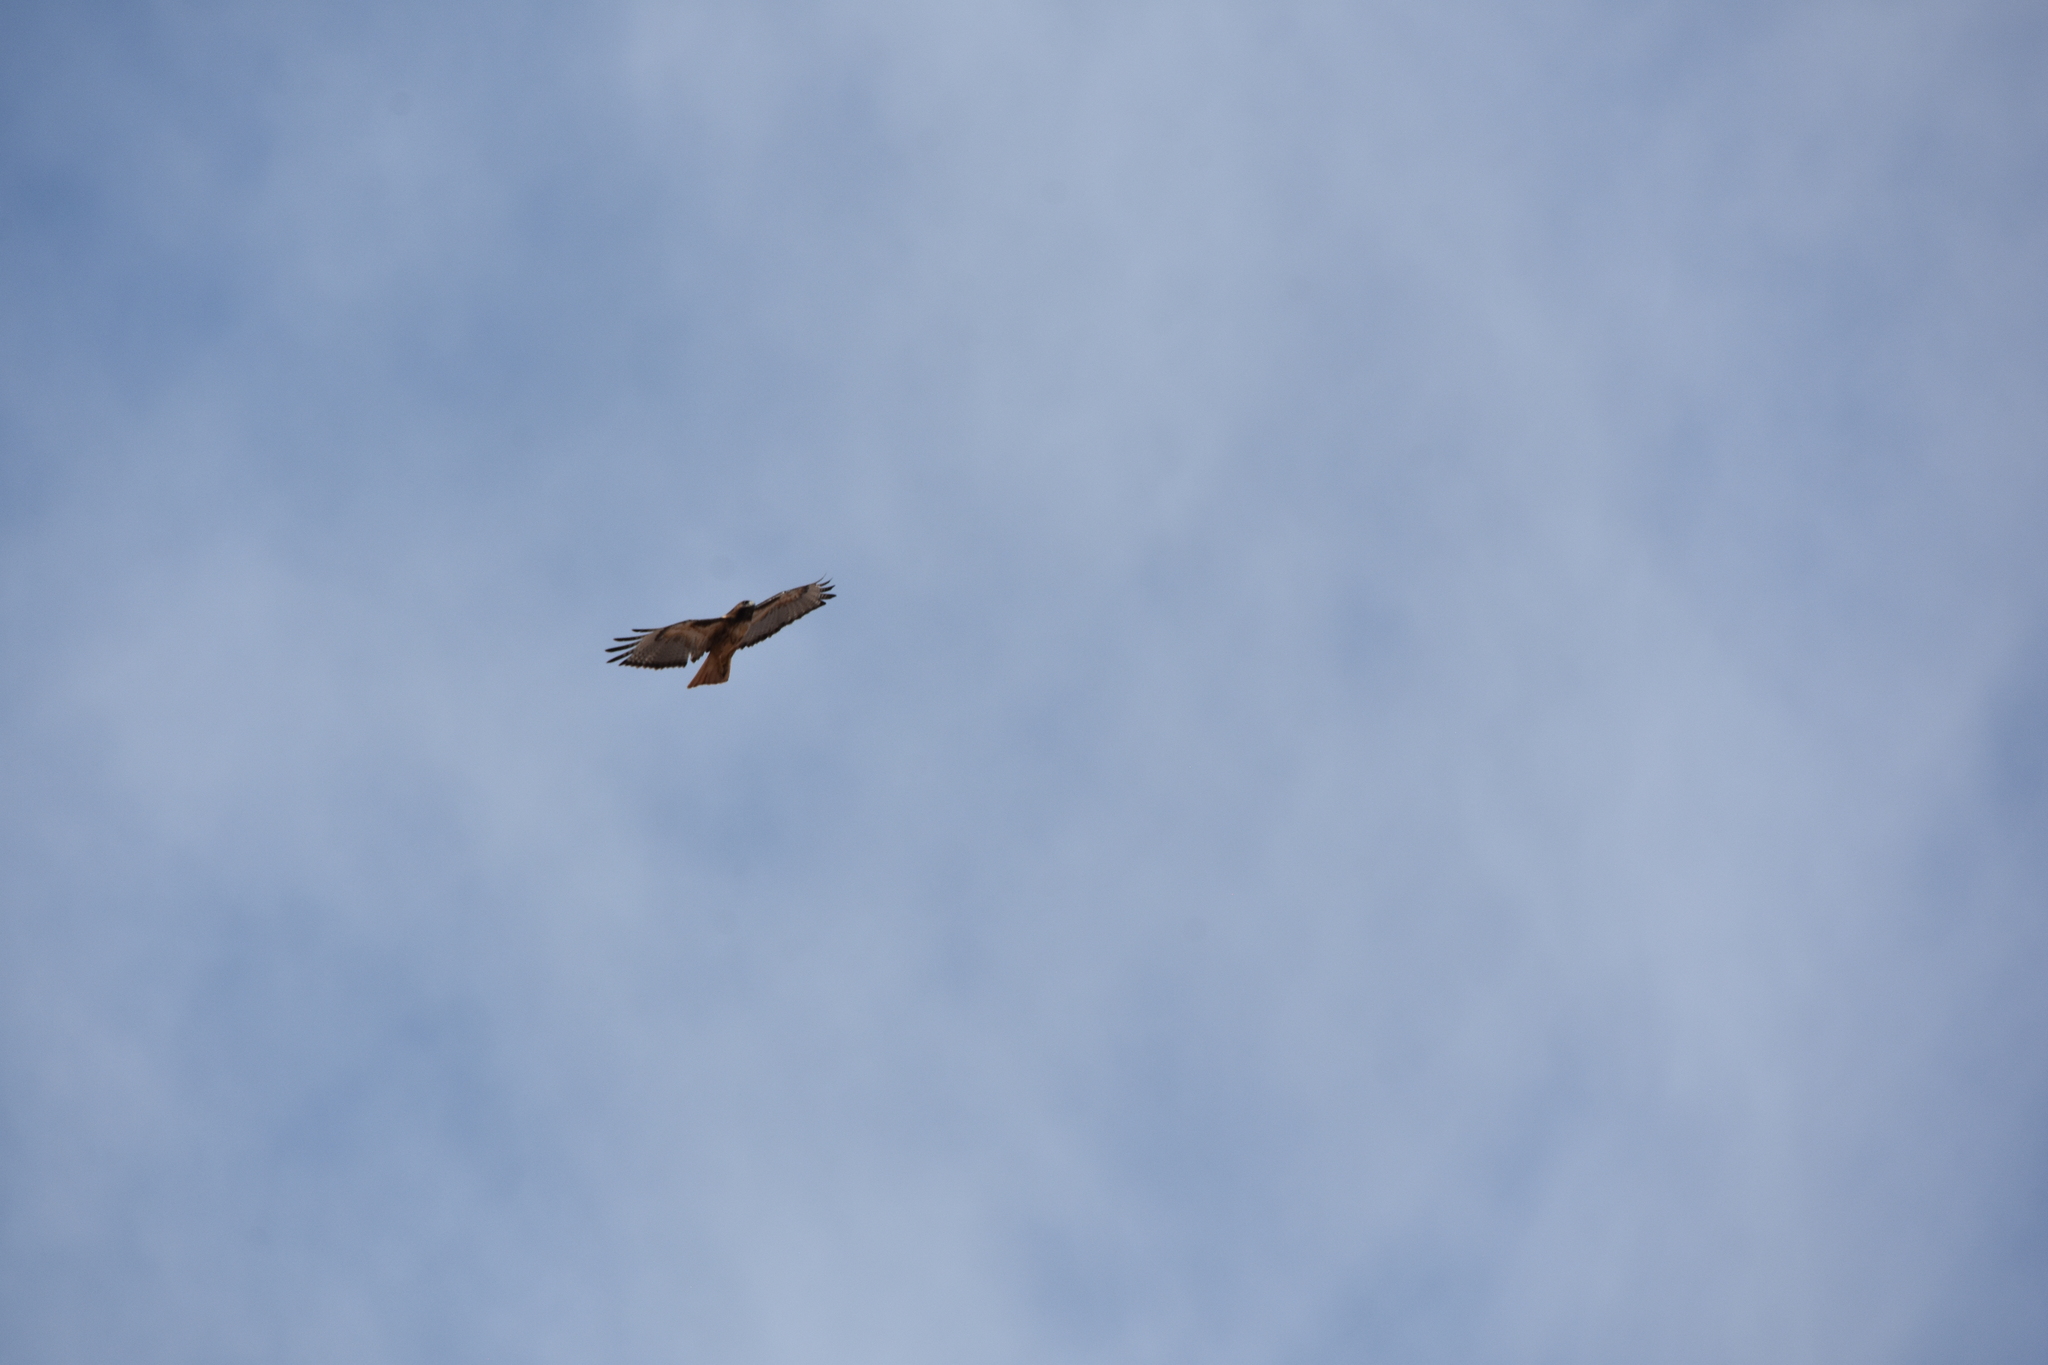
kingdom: Animalia
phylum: Chordata
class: Aves
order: Accipitriformes
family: Accipitridae
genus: Buteo
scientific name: Buteo jamaicensis
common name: Red-tailed hawk
